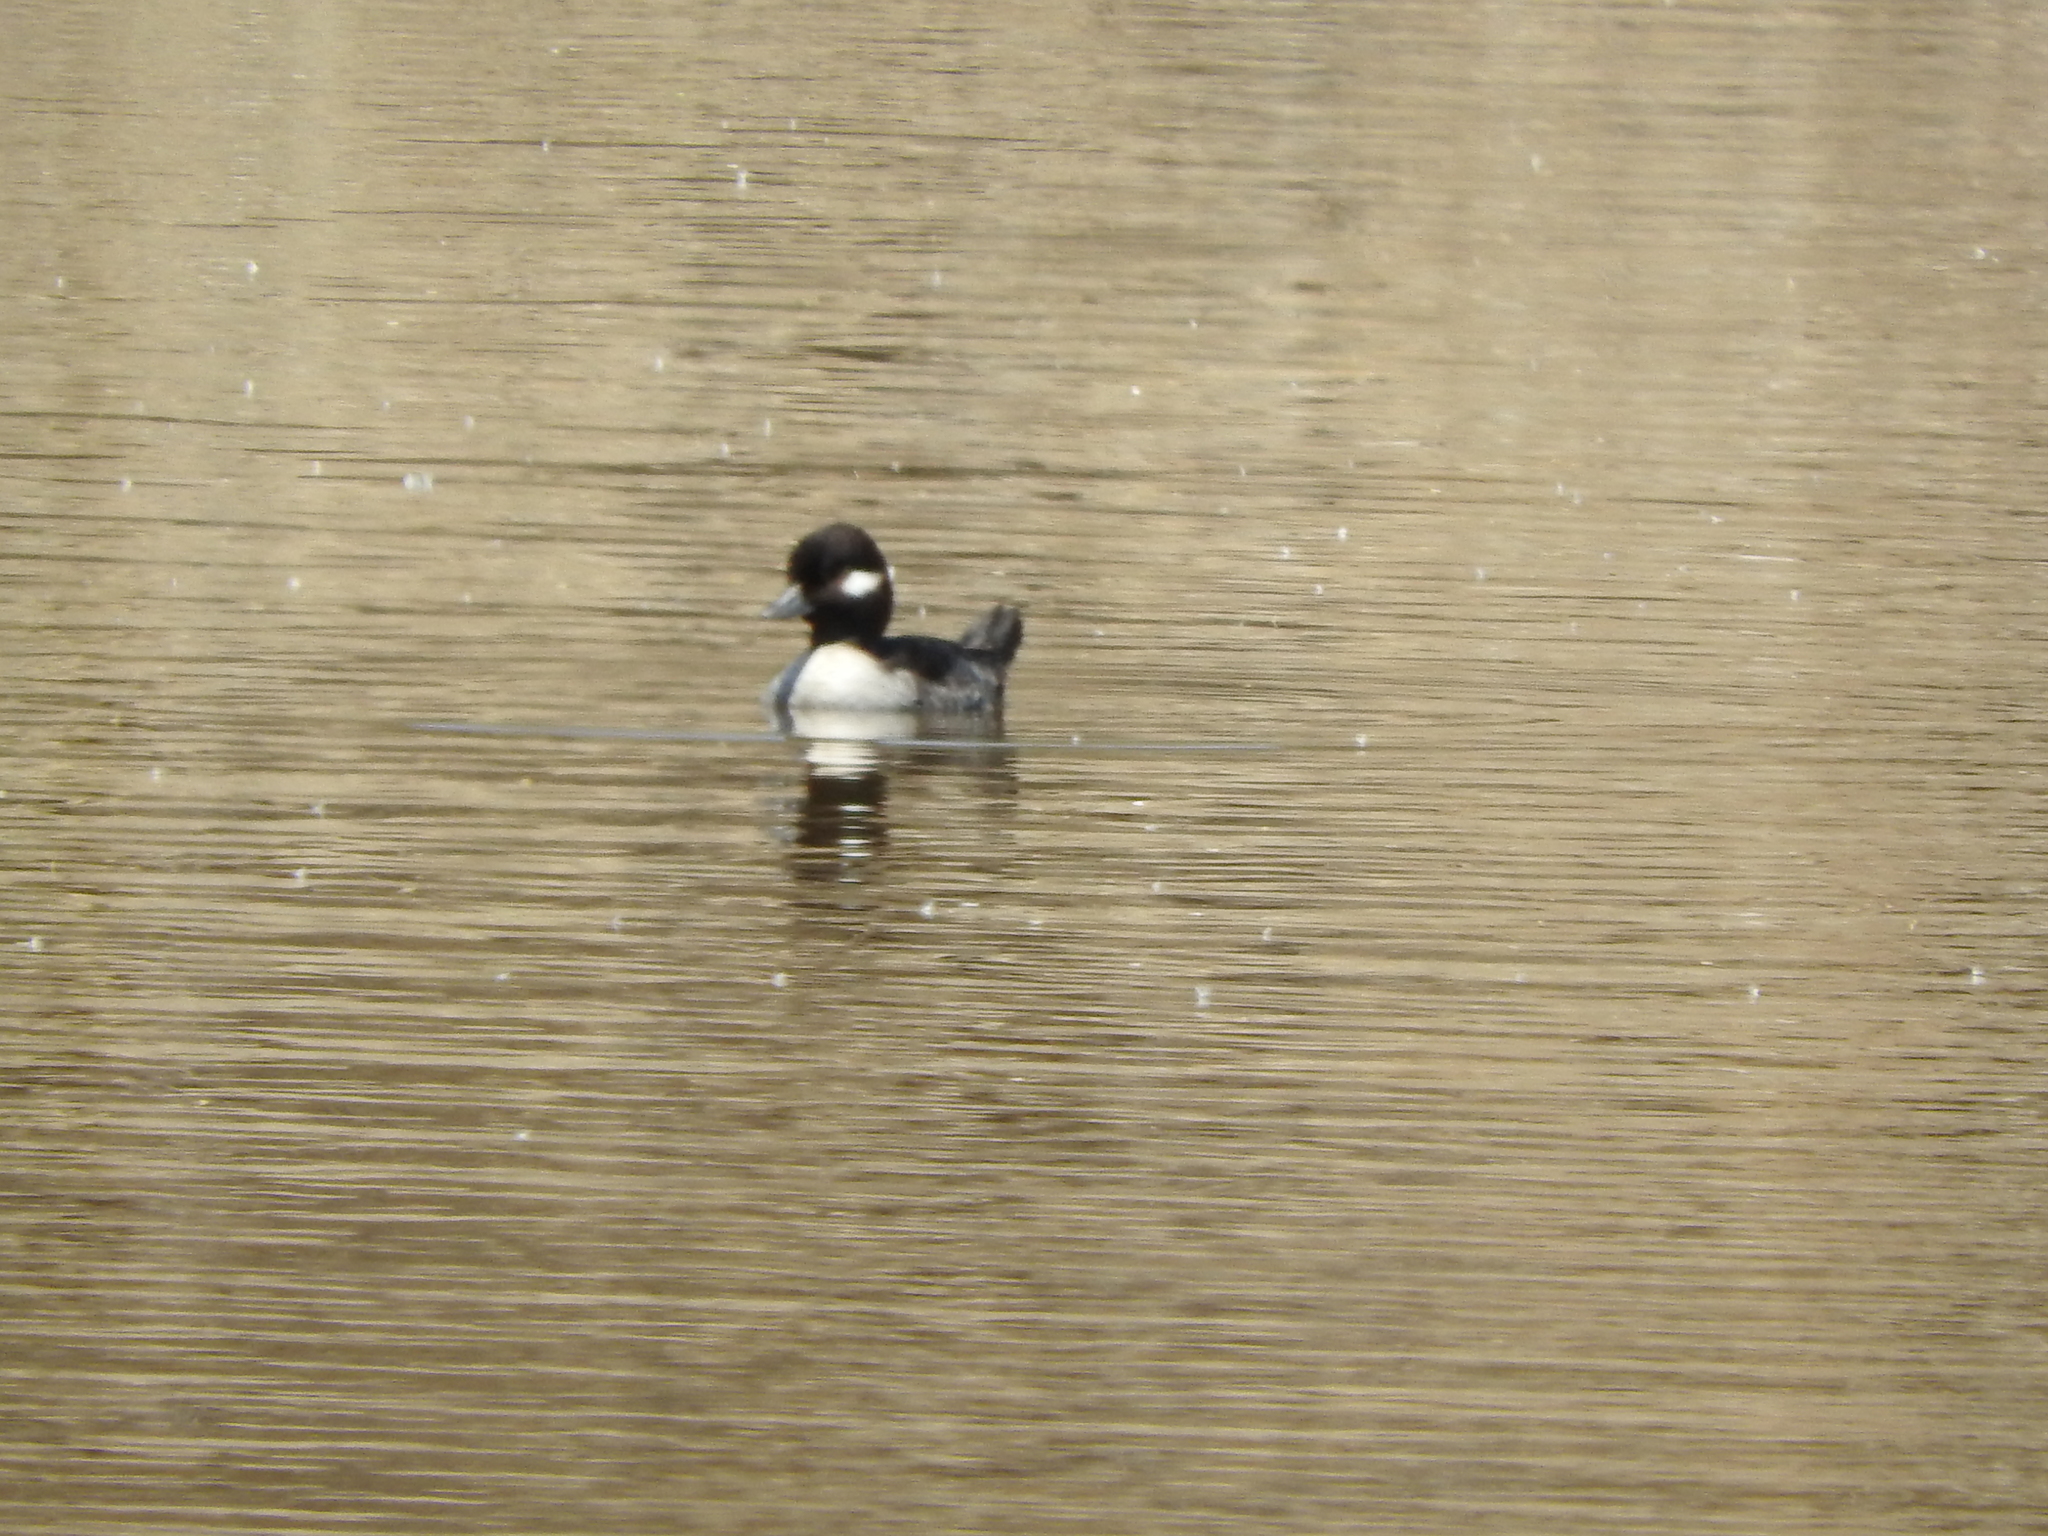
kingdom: Animalia
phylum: Chordata
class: Aves
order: Anseriformes
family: Anatidae
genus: Bucephala
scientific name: Bucephala albeola
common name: Bufflehead
